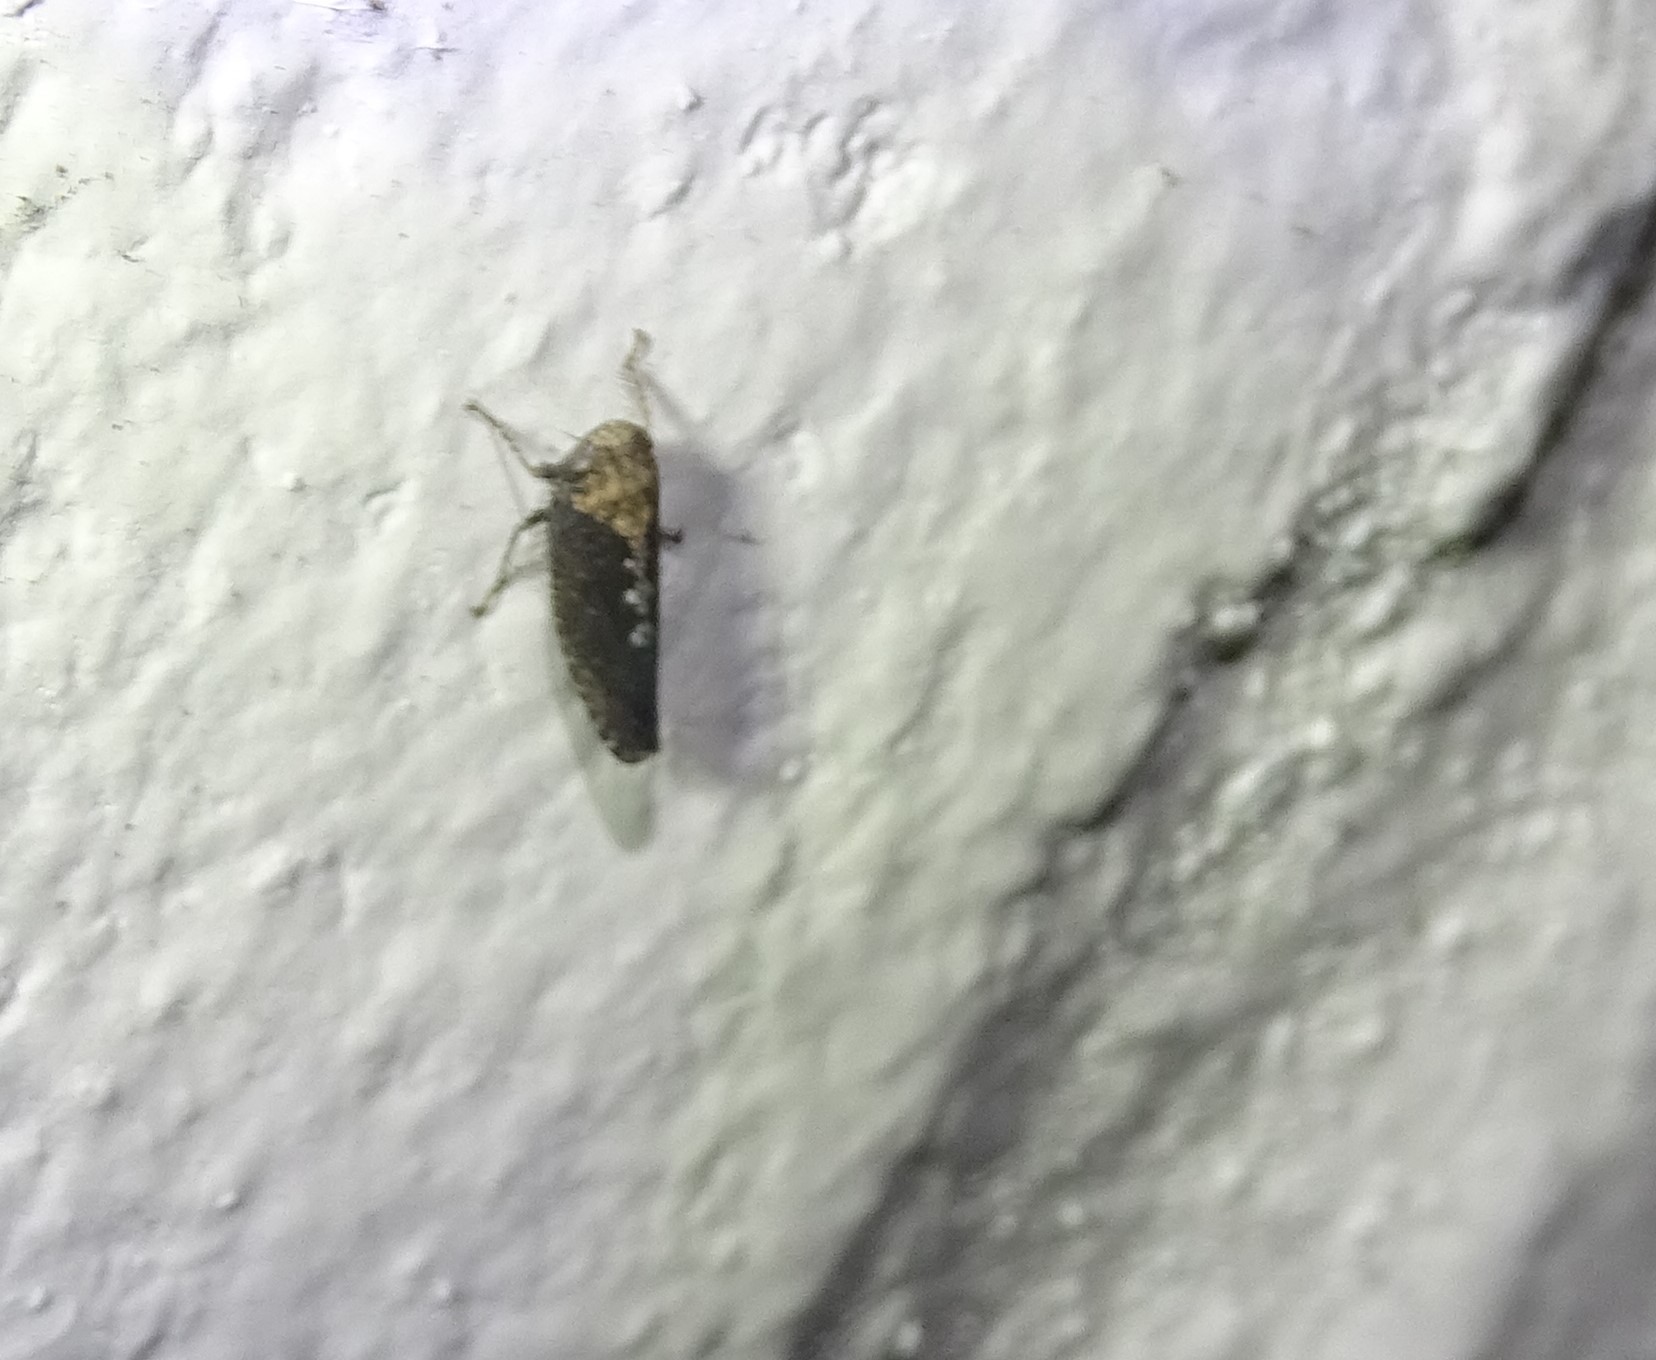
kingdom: Animalia
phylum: Arthropoda
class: Insecta
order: Hemiptera
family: Cicadellidae
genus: Excultanus
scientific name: Excultanus excultus
